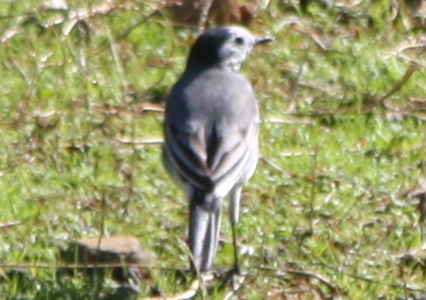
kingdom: Animalia
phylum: Chordata
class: Aves
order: Passeriformes
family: Motacillidae
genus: Motacilla
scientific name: Motacilla alba
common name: White wagtail
